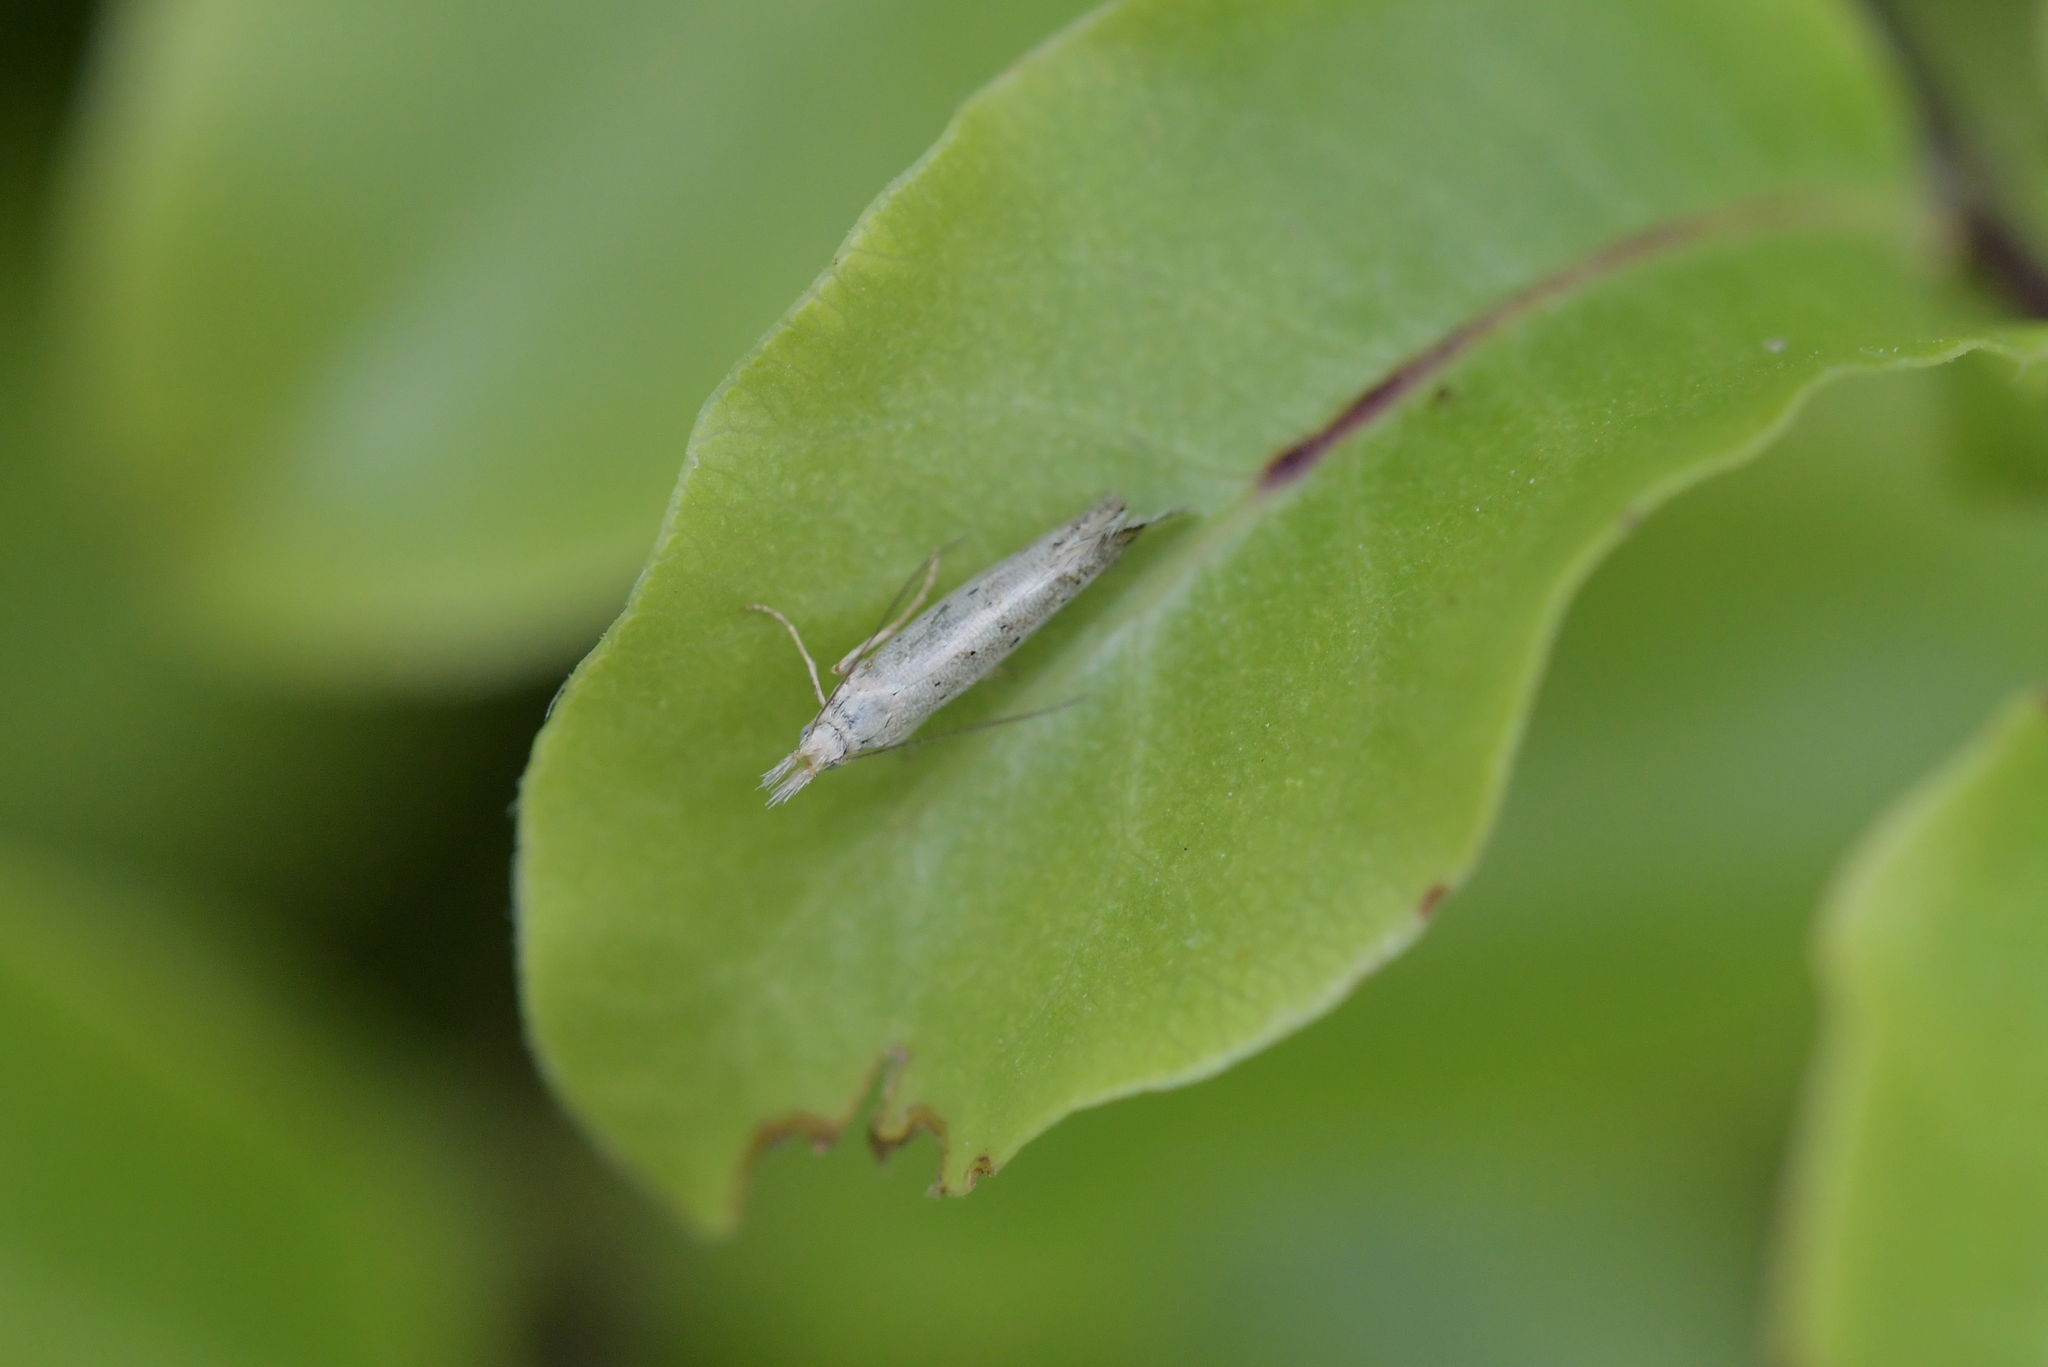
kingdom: Animalia
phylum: Arthropoda
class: Insecta
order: Lepidoptera
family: Glyphipterigidae
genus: Glyphipterix
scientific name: Glyphipterix achlyoessa
